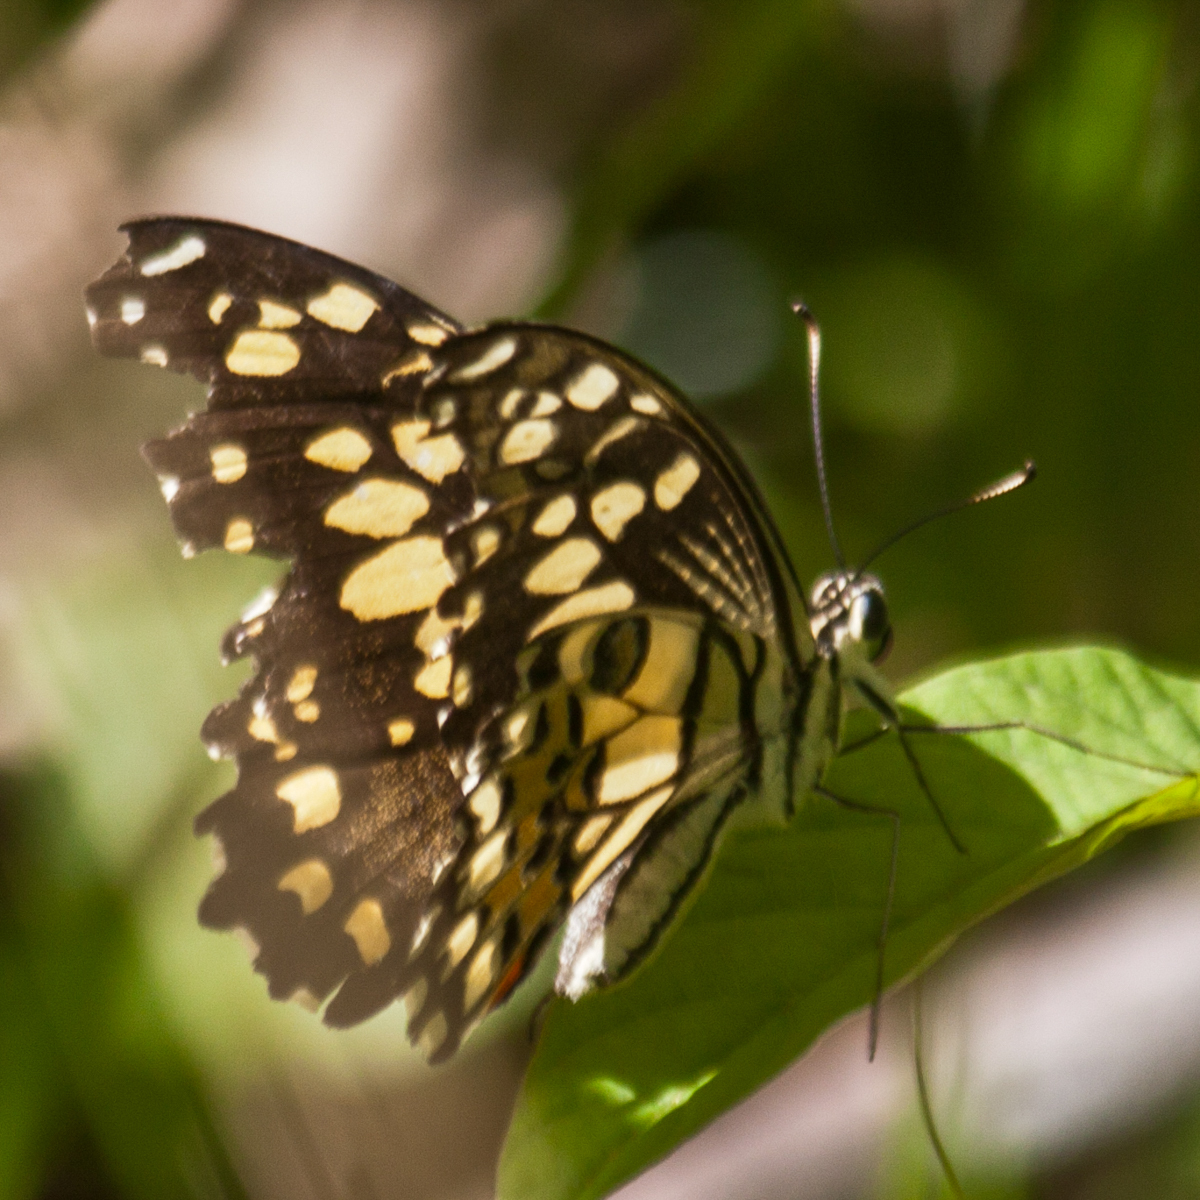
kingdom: Animalia
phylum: Arthropoda
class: Insecta
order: Lepidoptera
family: Papilionidae
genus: Papilio
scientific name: Papilio demoleus
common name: Lime butterfly
